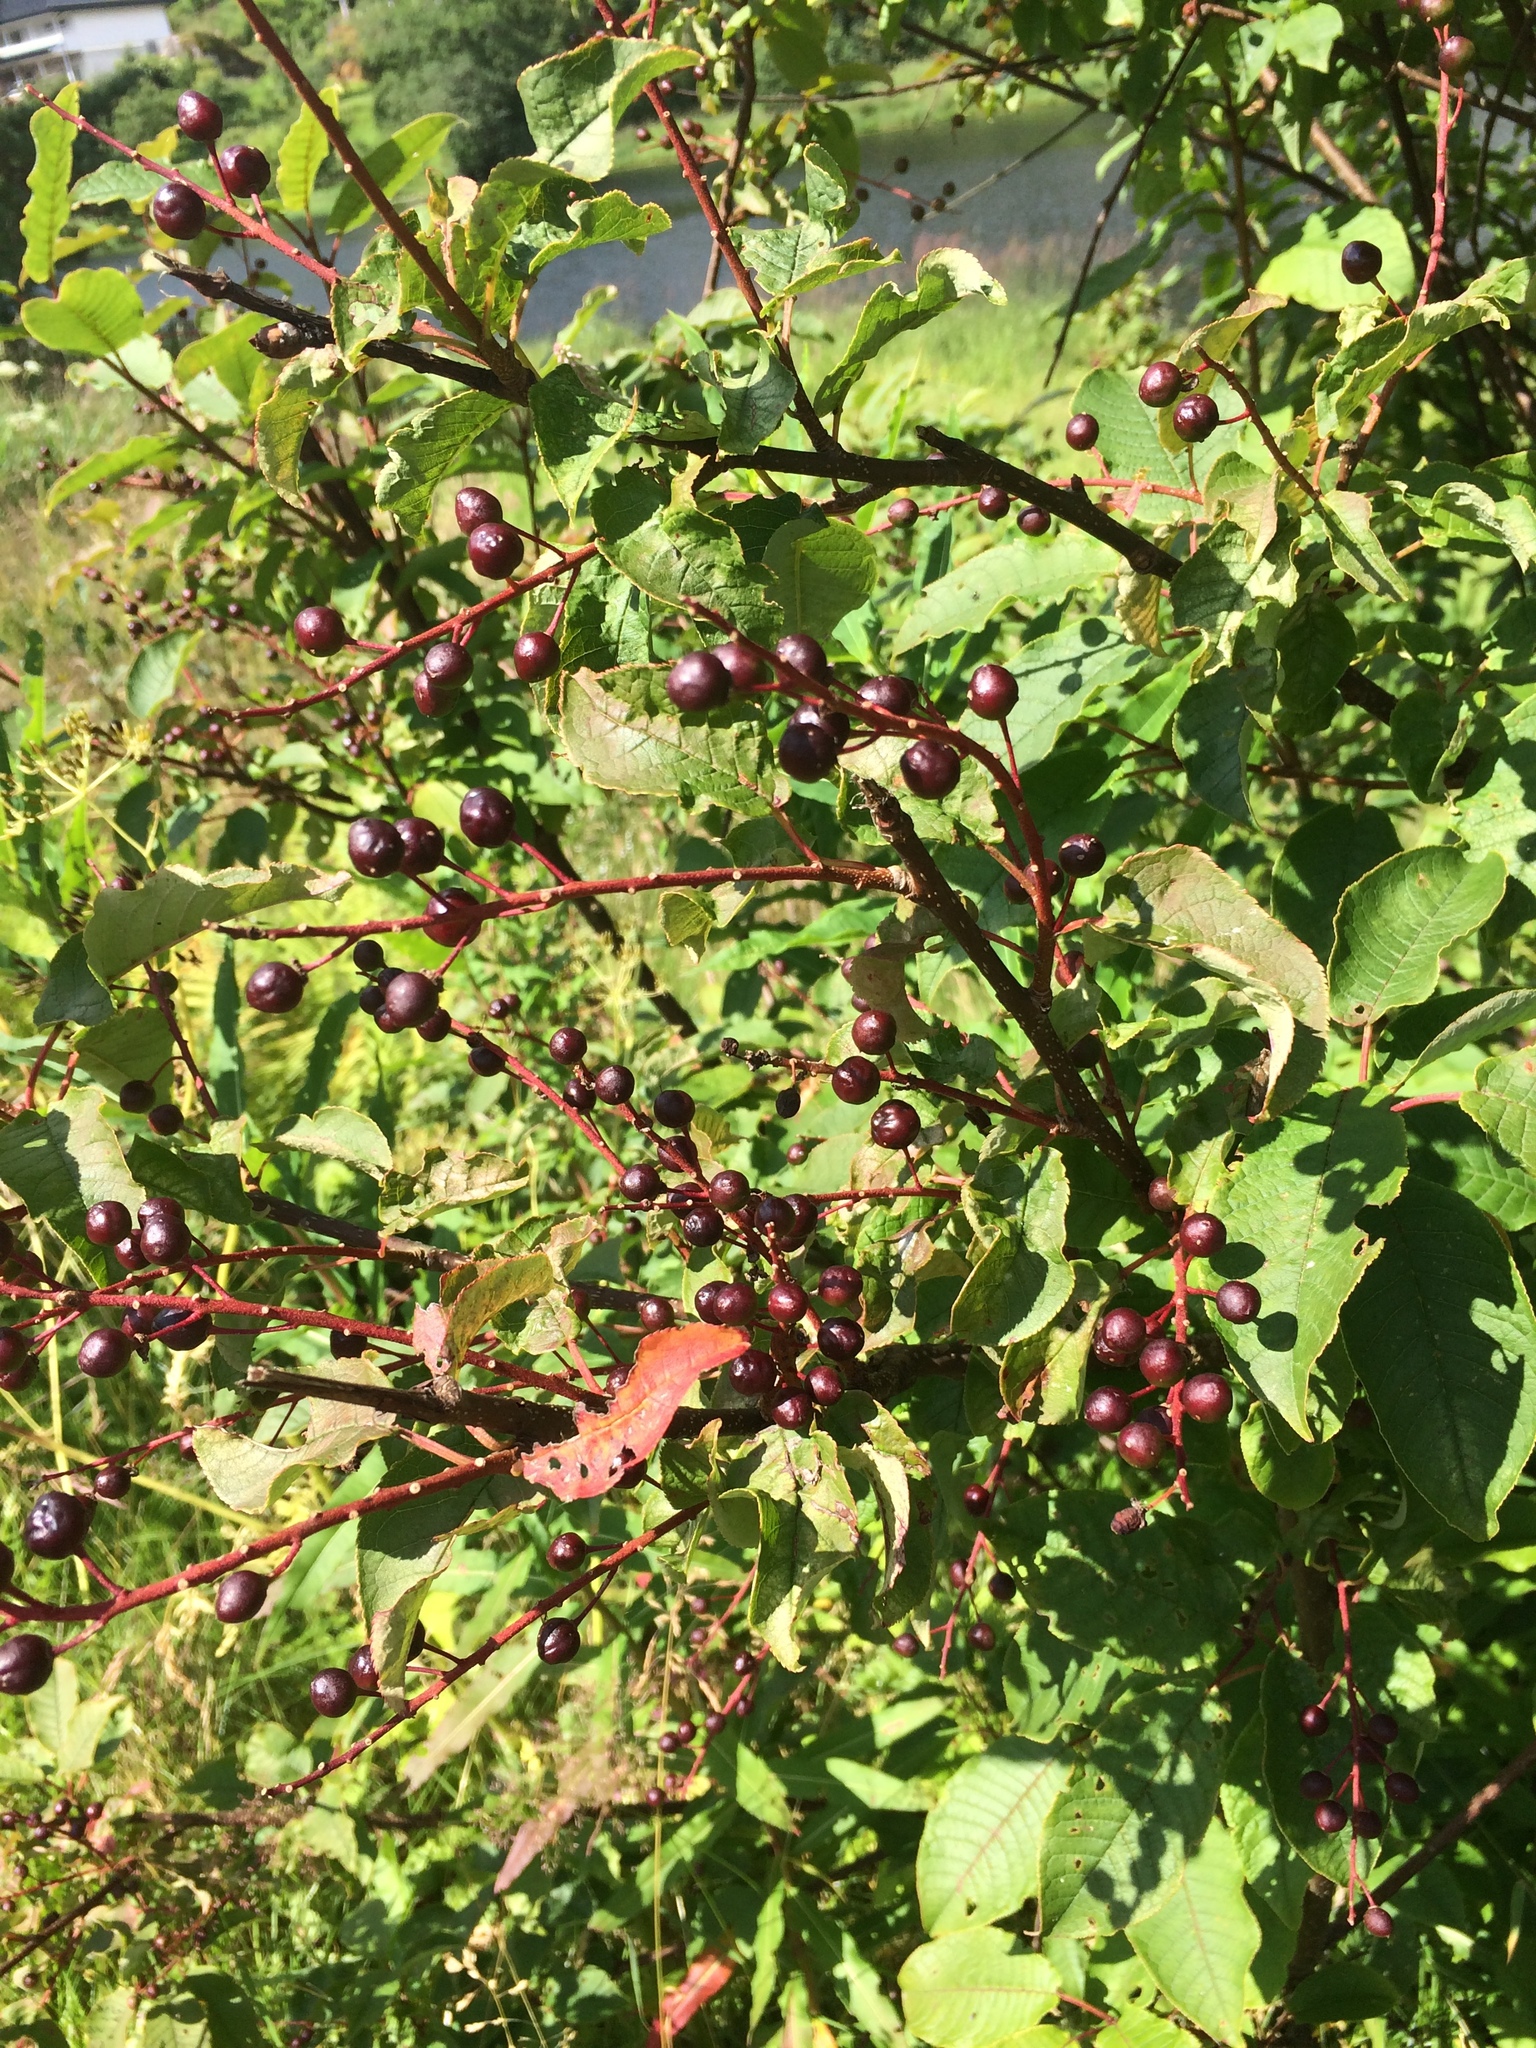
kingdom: Plantae
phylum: Tracheophyta
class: Magnoliopsida
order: Rosales
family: Rosaceae
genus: Prunus
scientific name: Prunus padus
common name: Bird cherry
